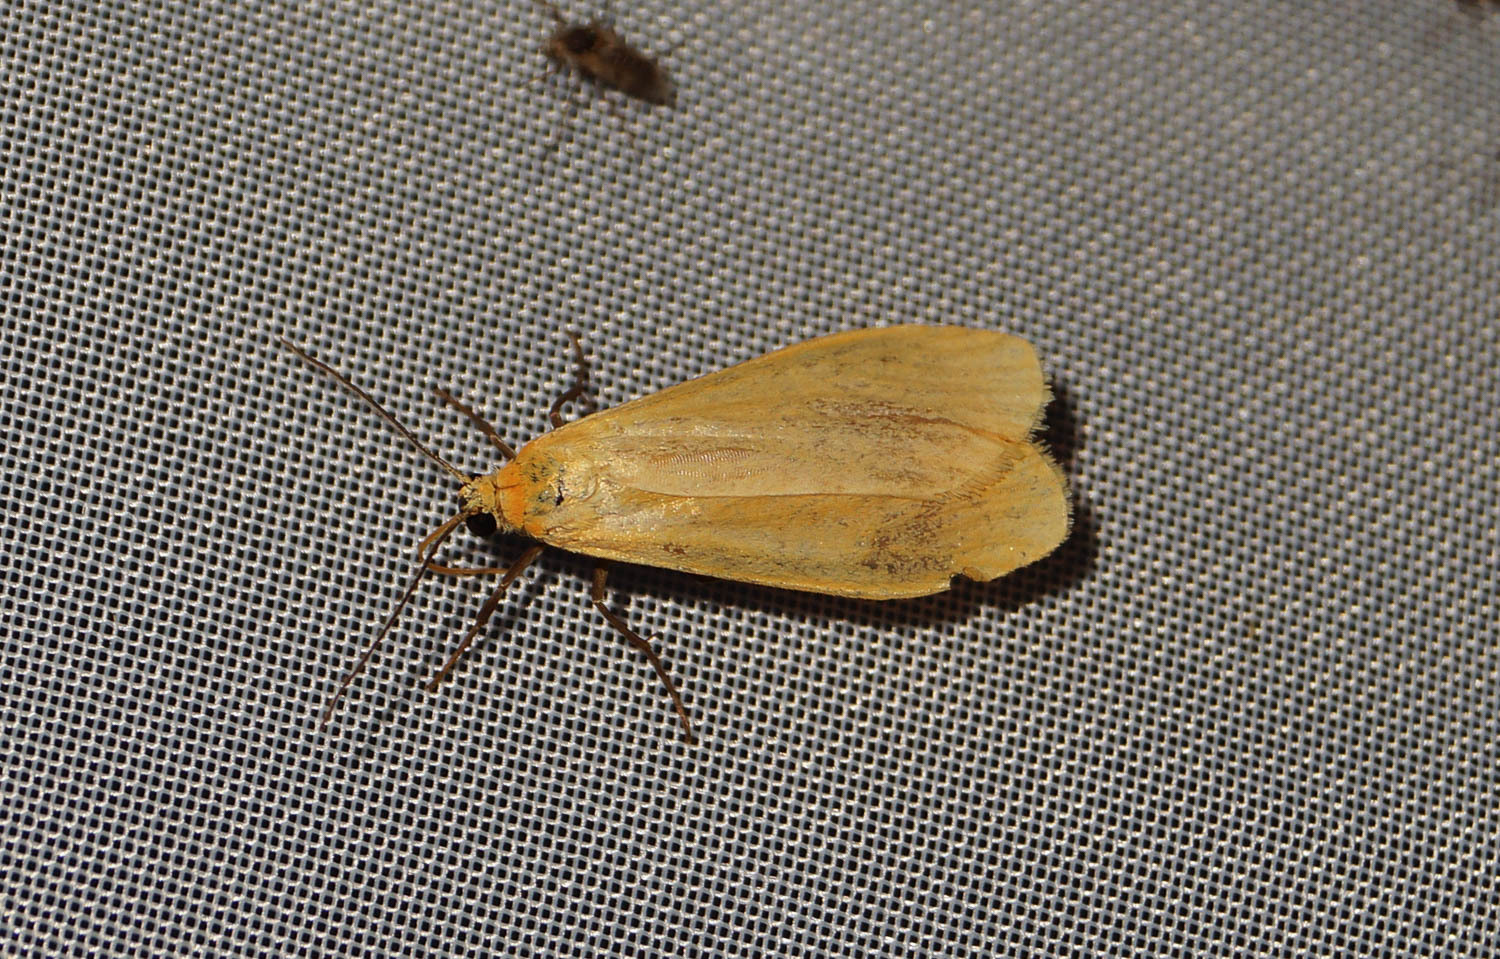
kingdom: Animalia
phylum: Arthropoda
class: Insecta
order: Lepidoptera
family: Erebidae
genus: Wittia
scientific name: Wittia sororcula
